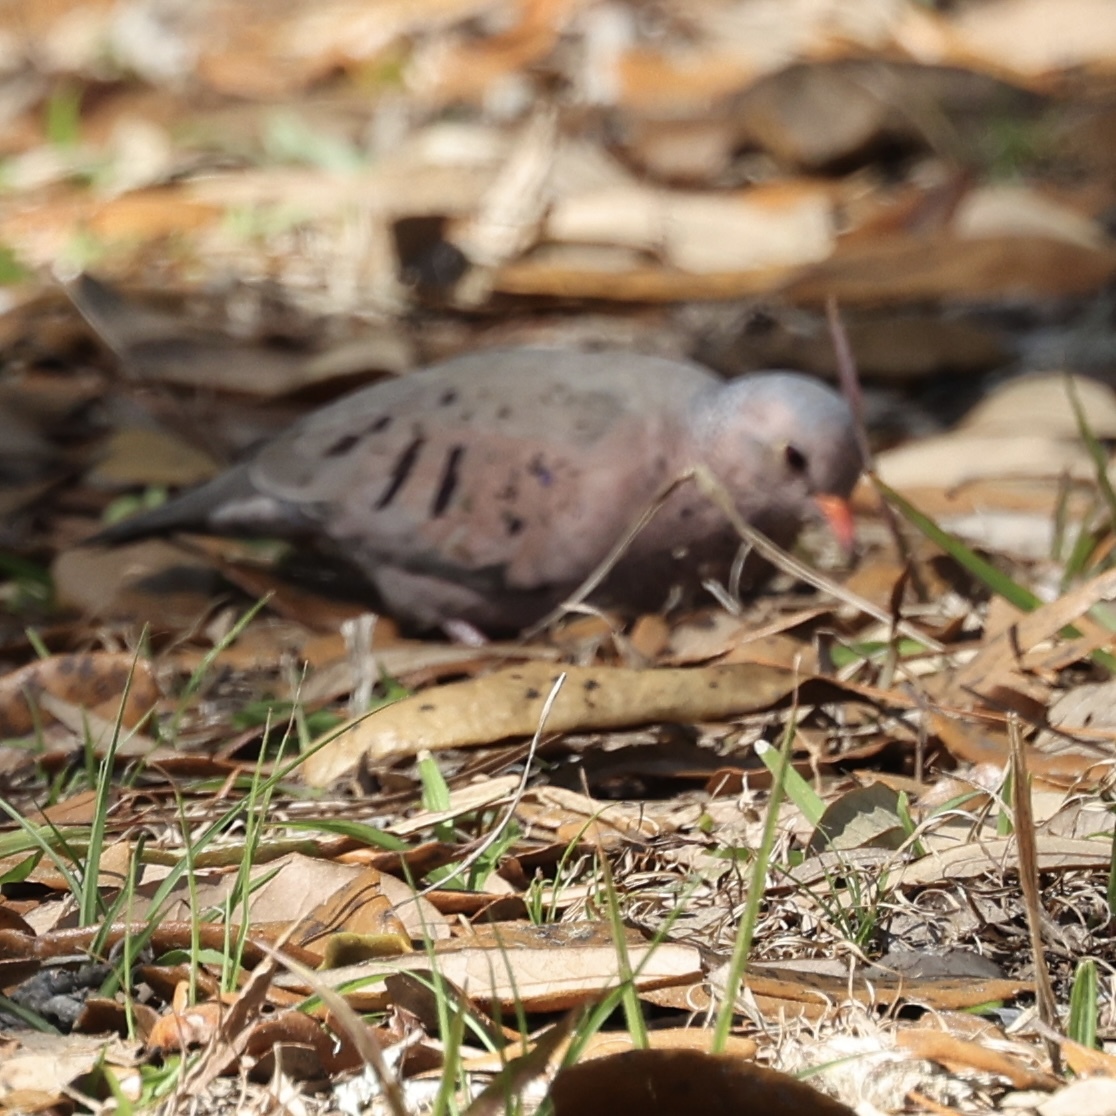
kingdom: Animalia
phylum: Chordata
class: Aves
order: Columbiformes
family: Columbidae
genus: Columbina
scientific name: Columbina passerina
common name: Common ground-dove
